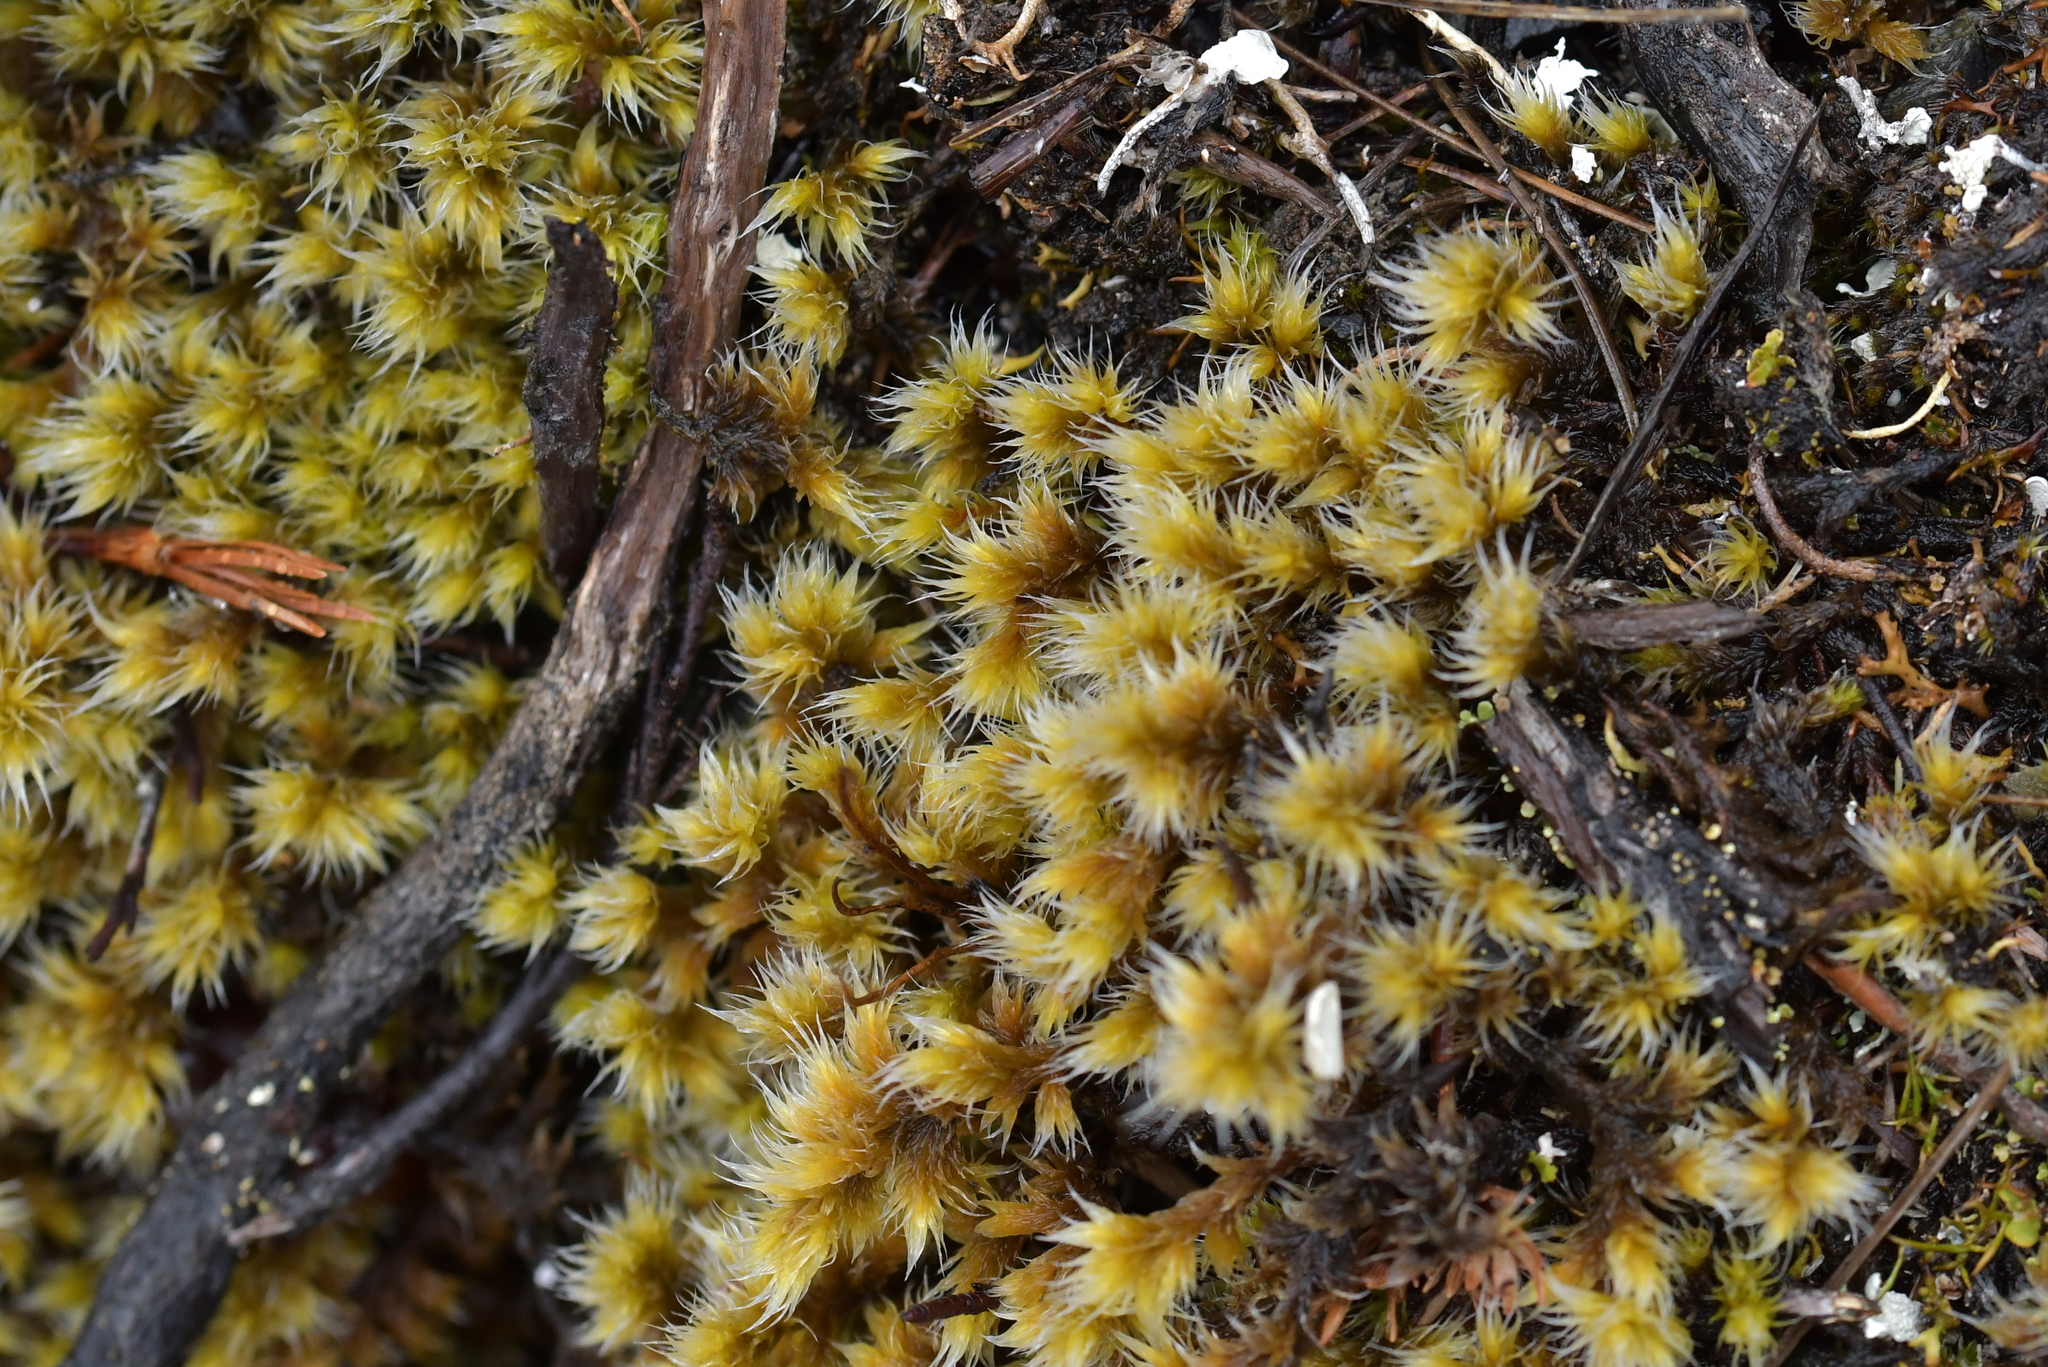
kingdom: Plantae
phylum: Bryophyta
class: Bryopsida
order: Grimmiales
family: Grimmiaceae
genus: Racomitrium
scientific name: Racomitrium lanuginosum
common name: Hoary rock moss
